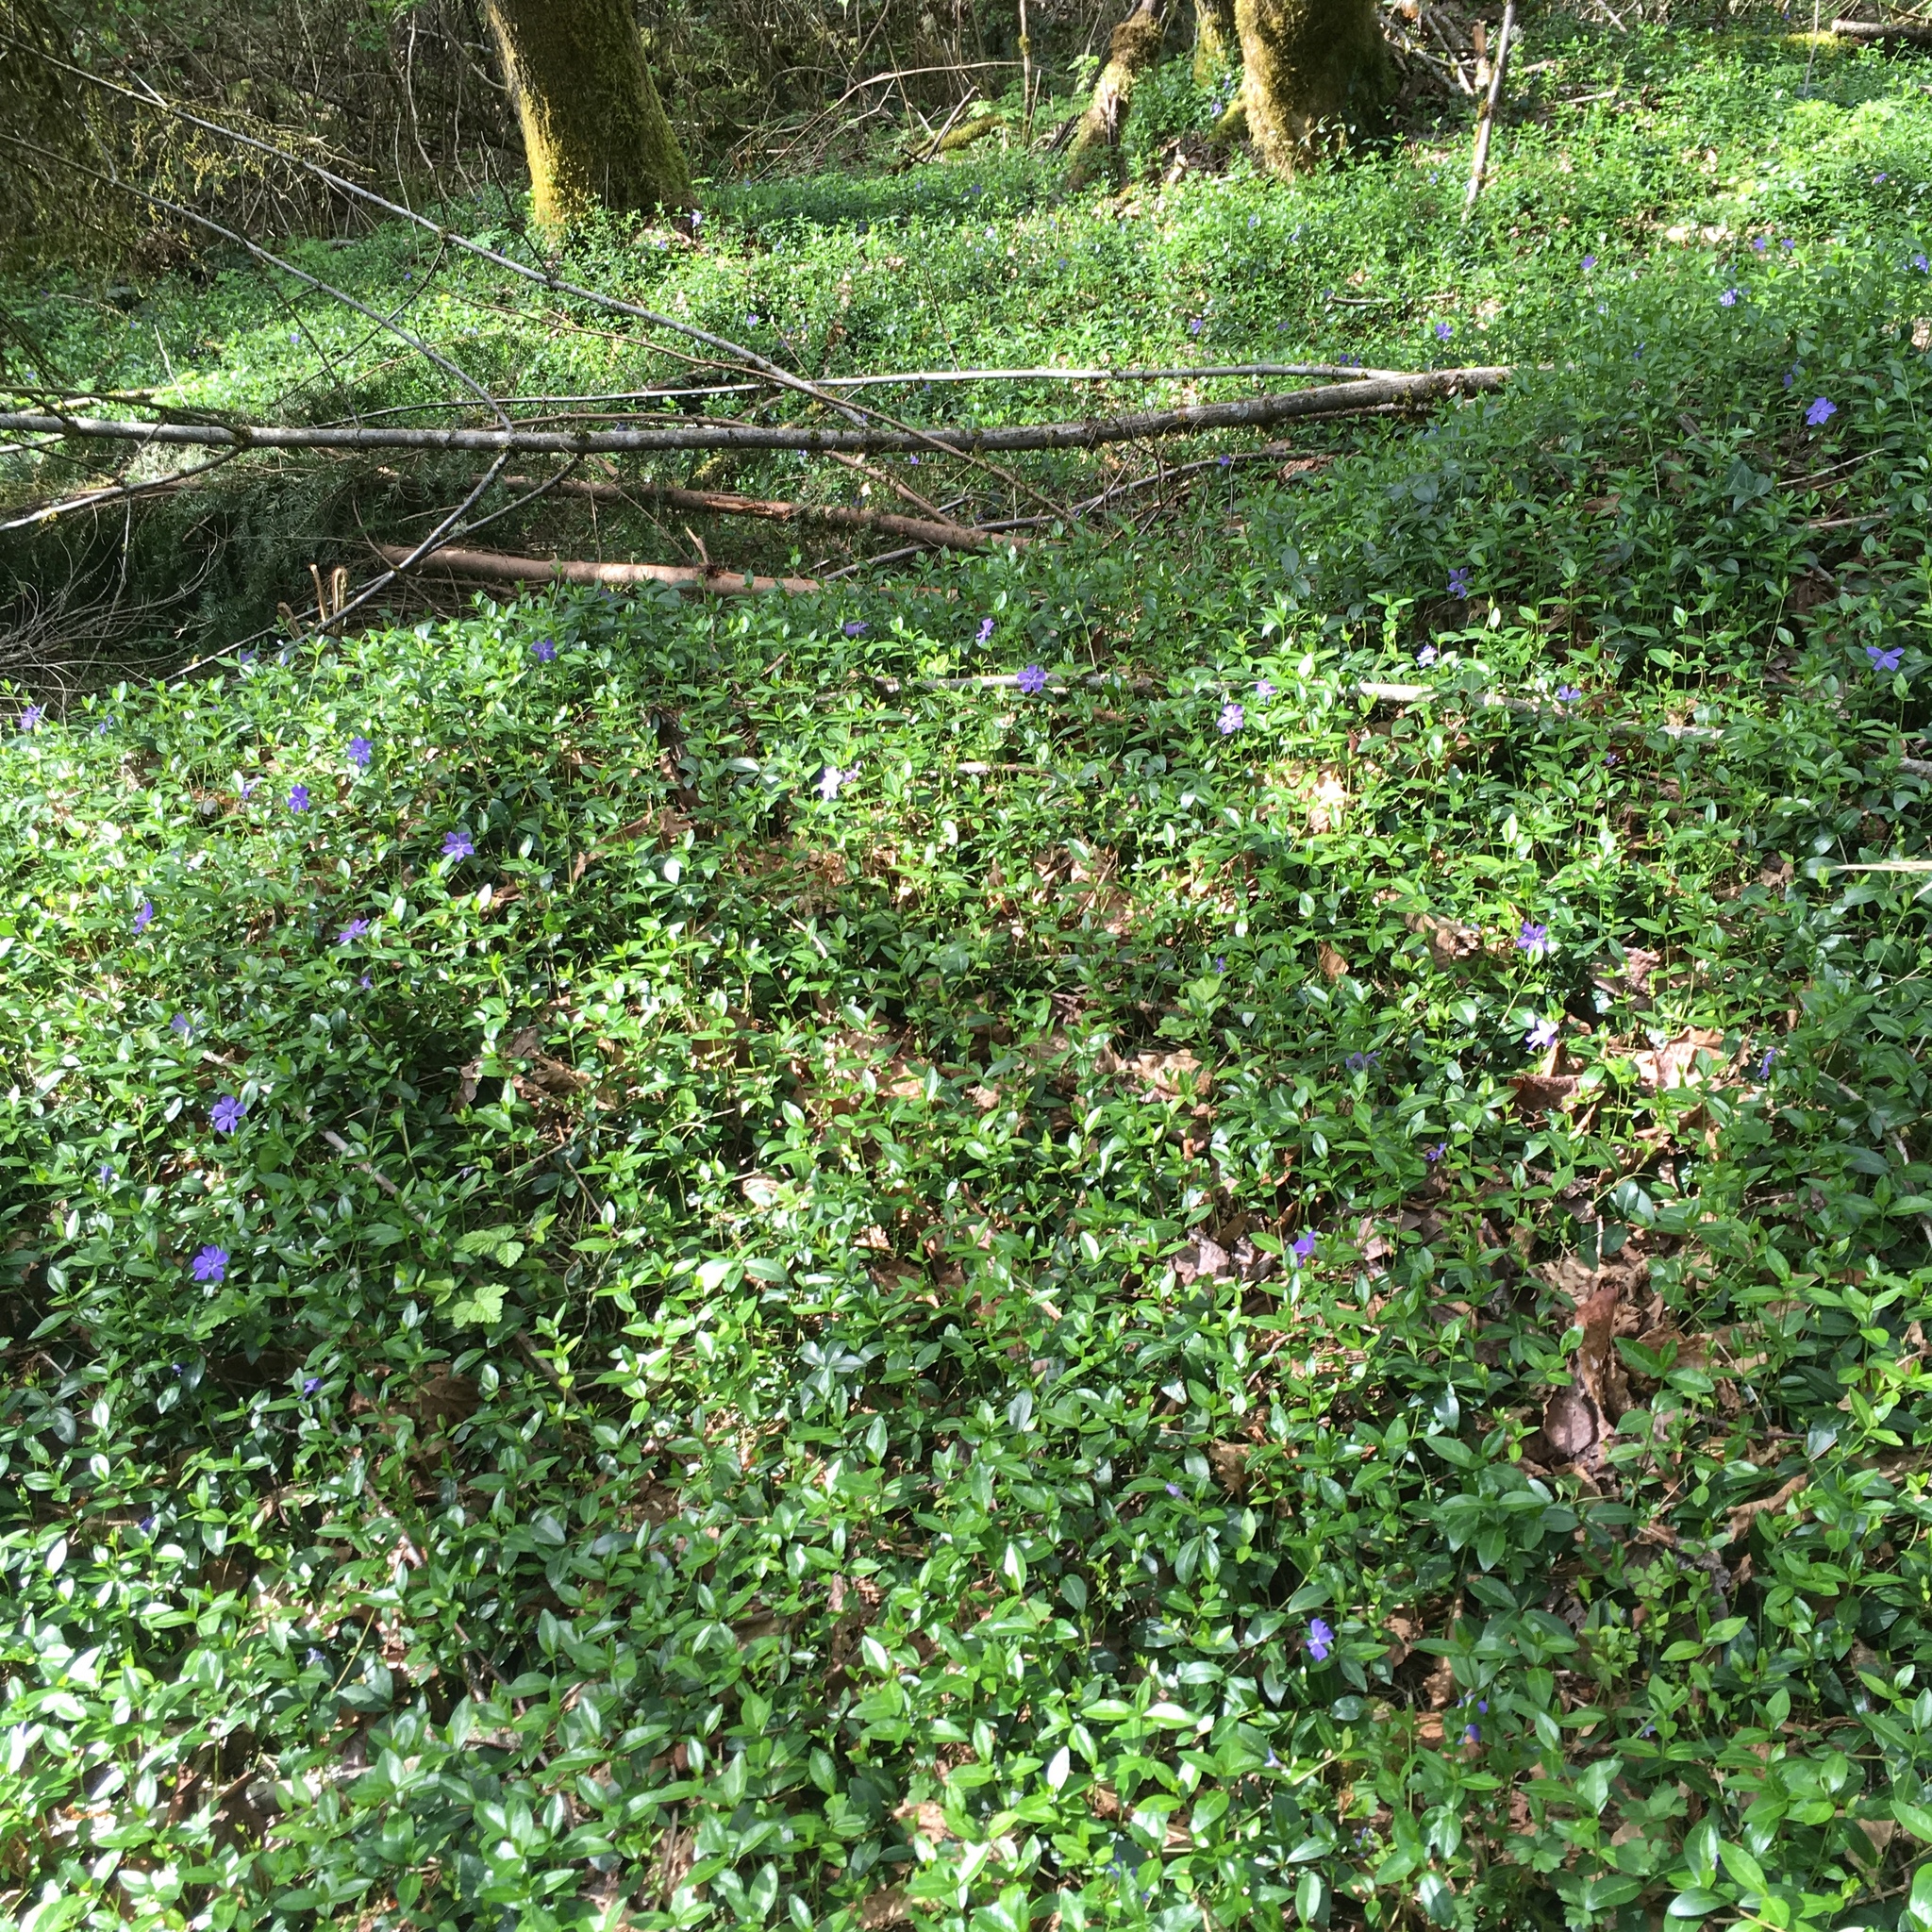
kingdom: Plantae
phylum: Tracheophyta
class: Magnoliopsida
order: Gentianales
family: Apocynaceae
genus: Vinca
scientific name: Vinca minor
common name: Lesser periwinkle
